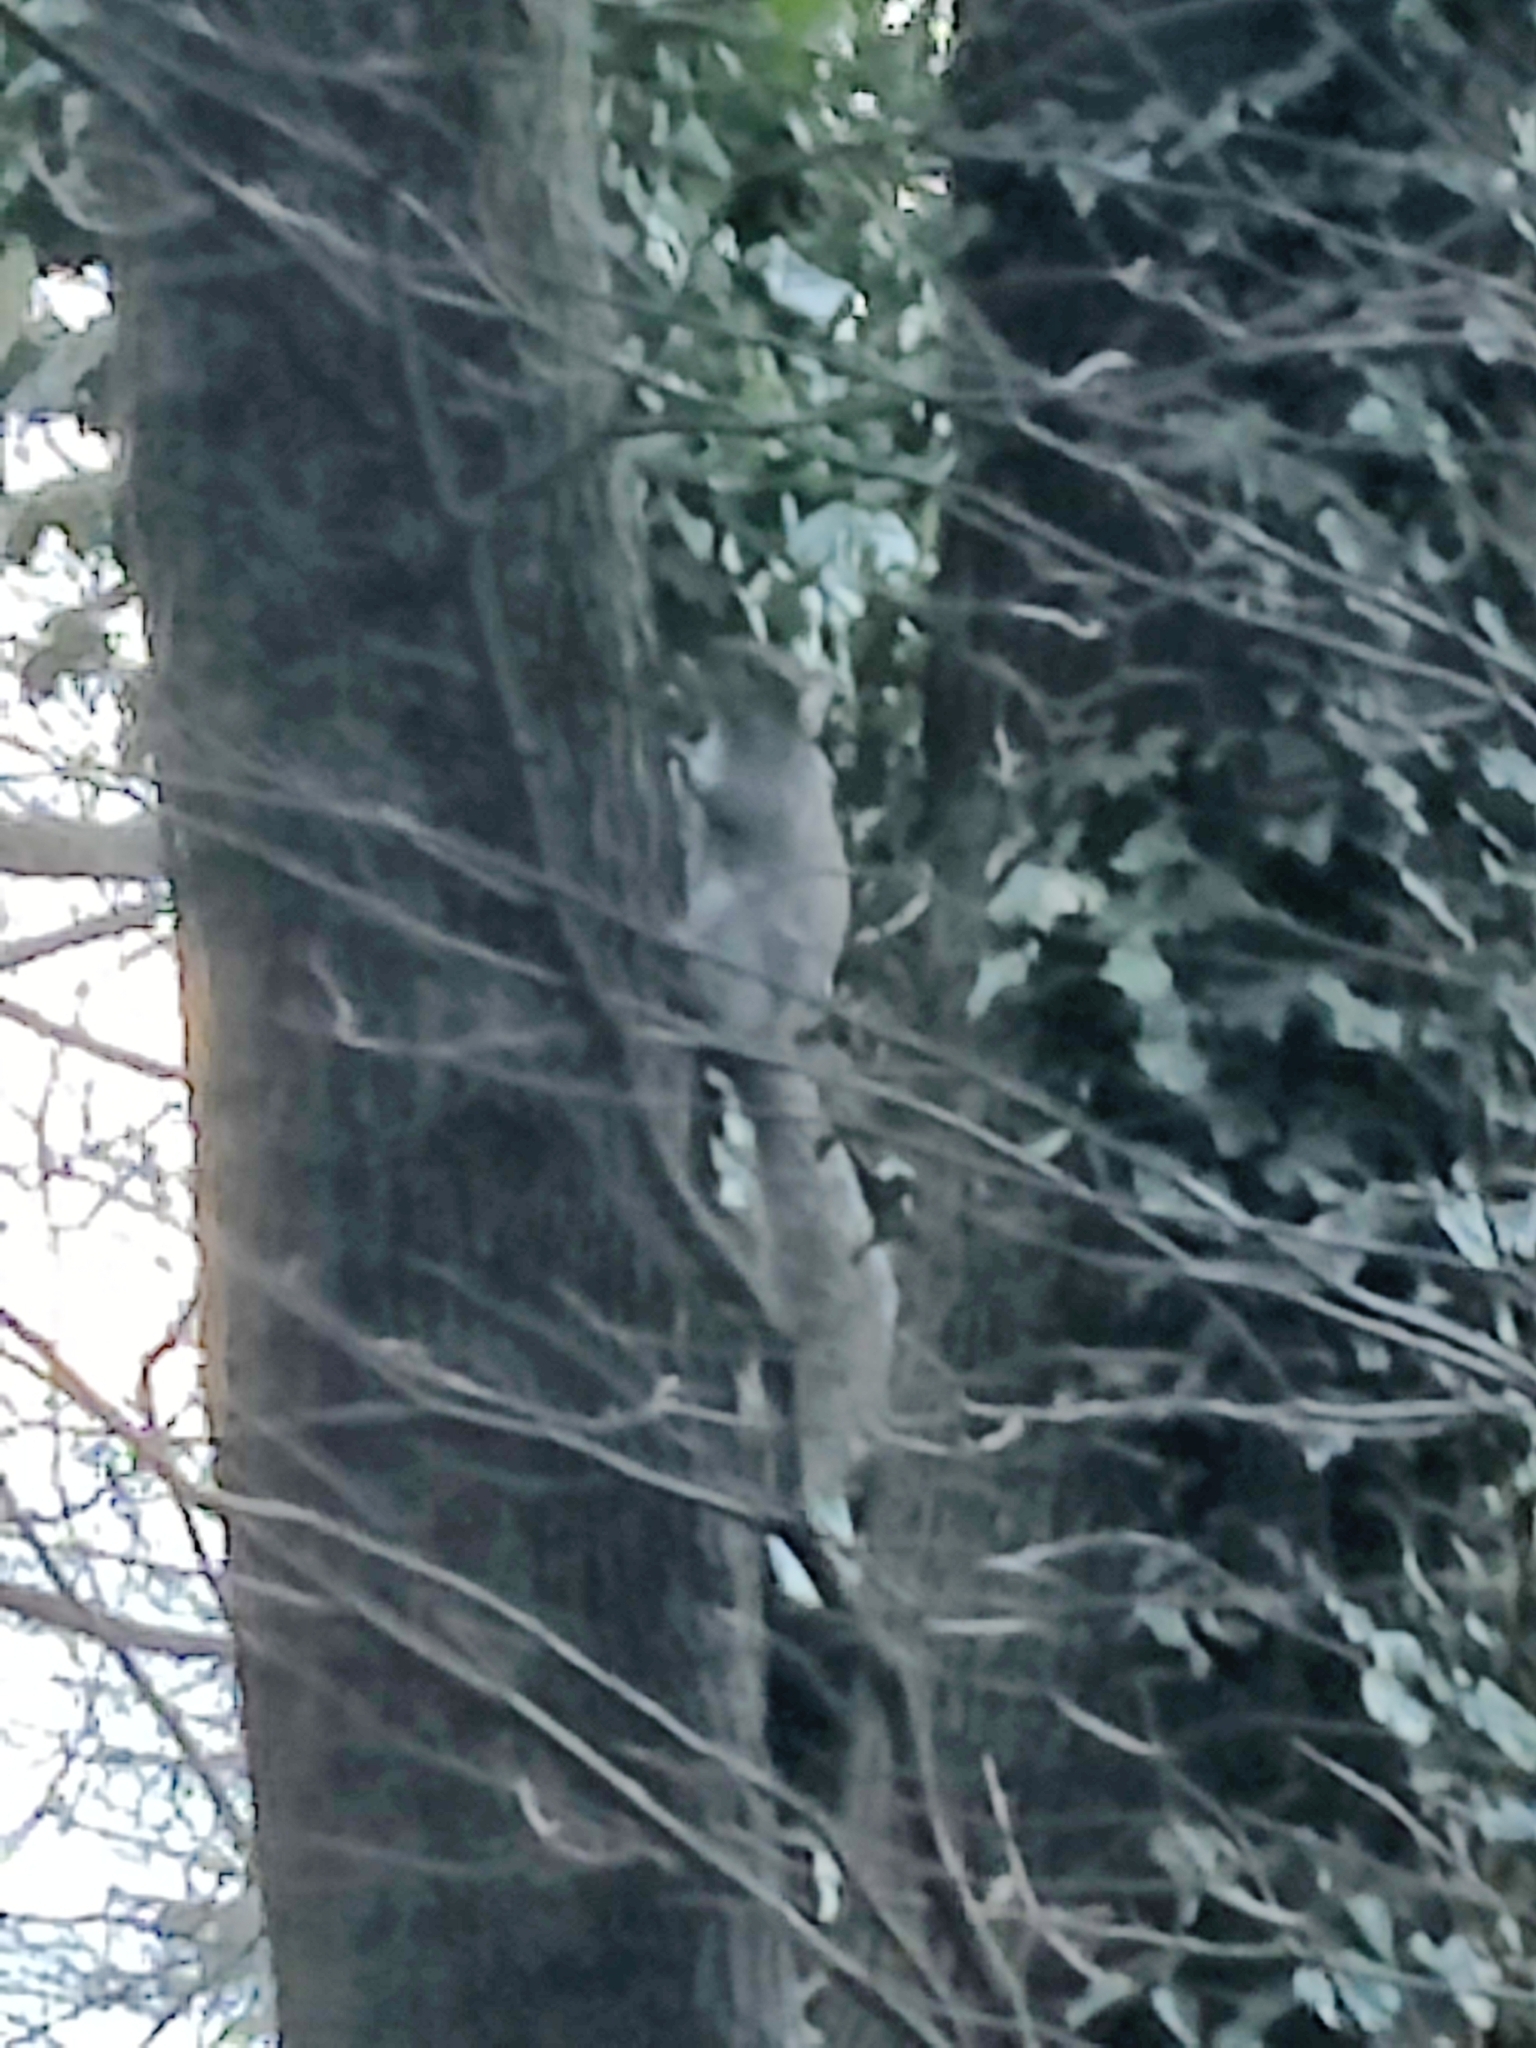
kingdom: Animalia
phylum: Chordata
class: Mammalia
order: Rodentia
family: Sciuridae
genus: Sciurus
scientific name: Sciurus carolinensis
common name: Eastern gray squirrel
